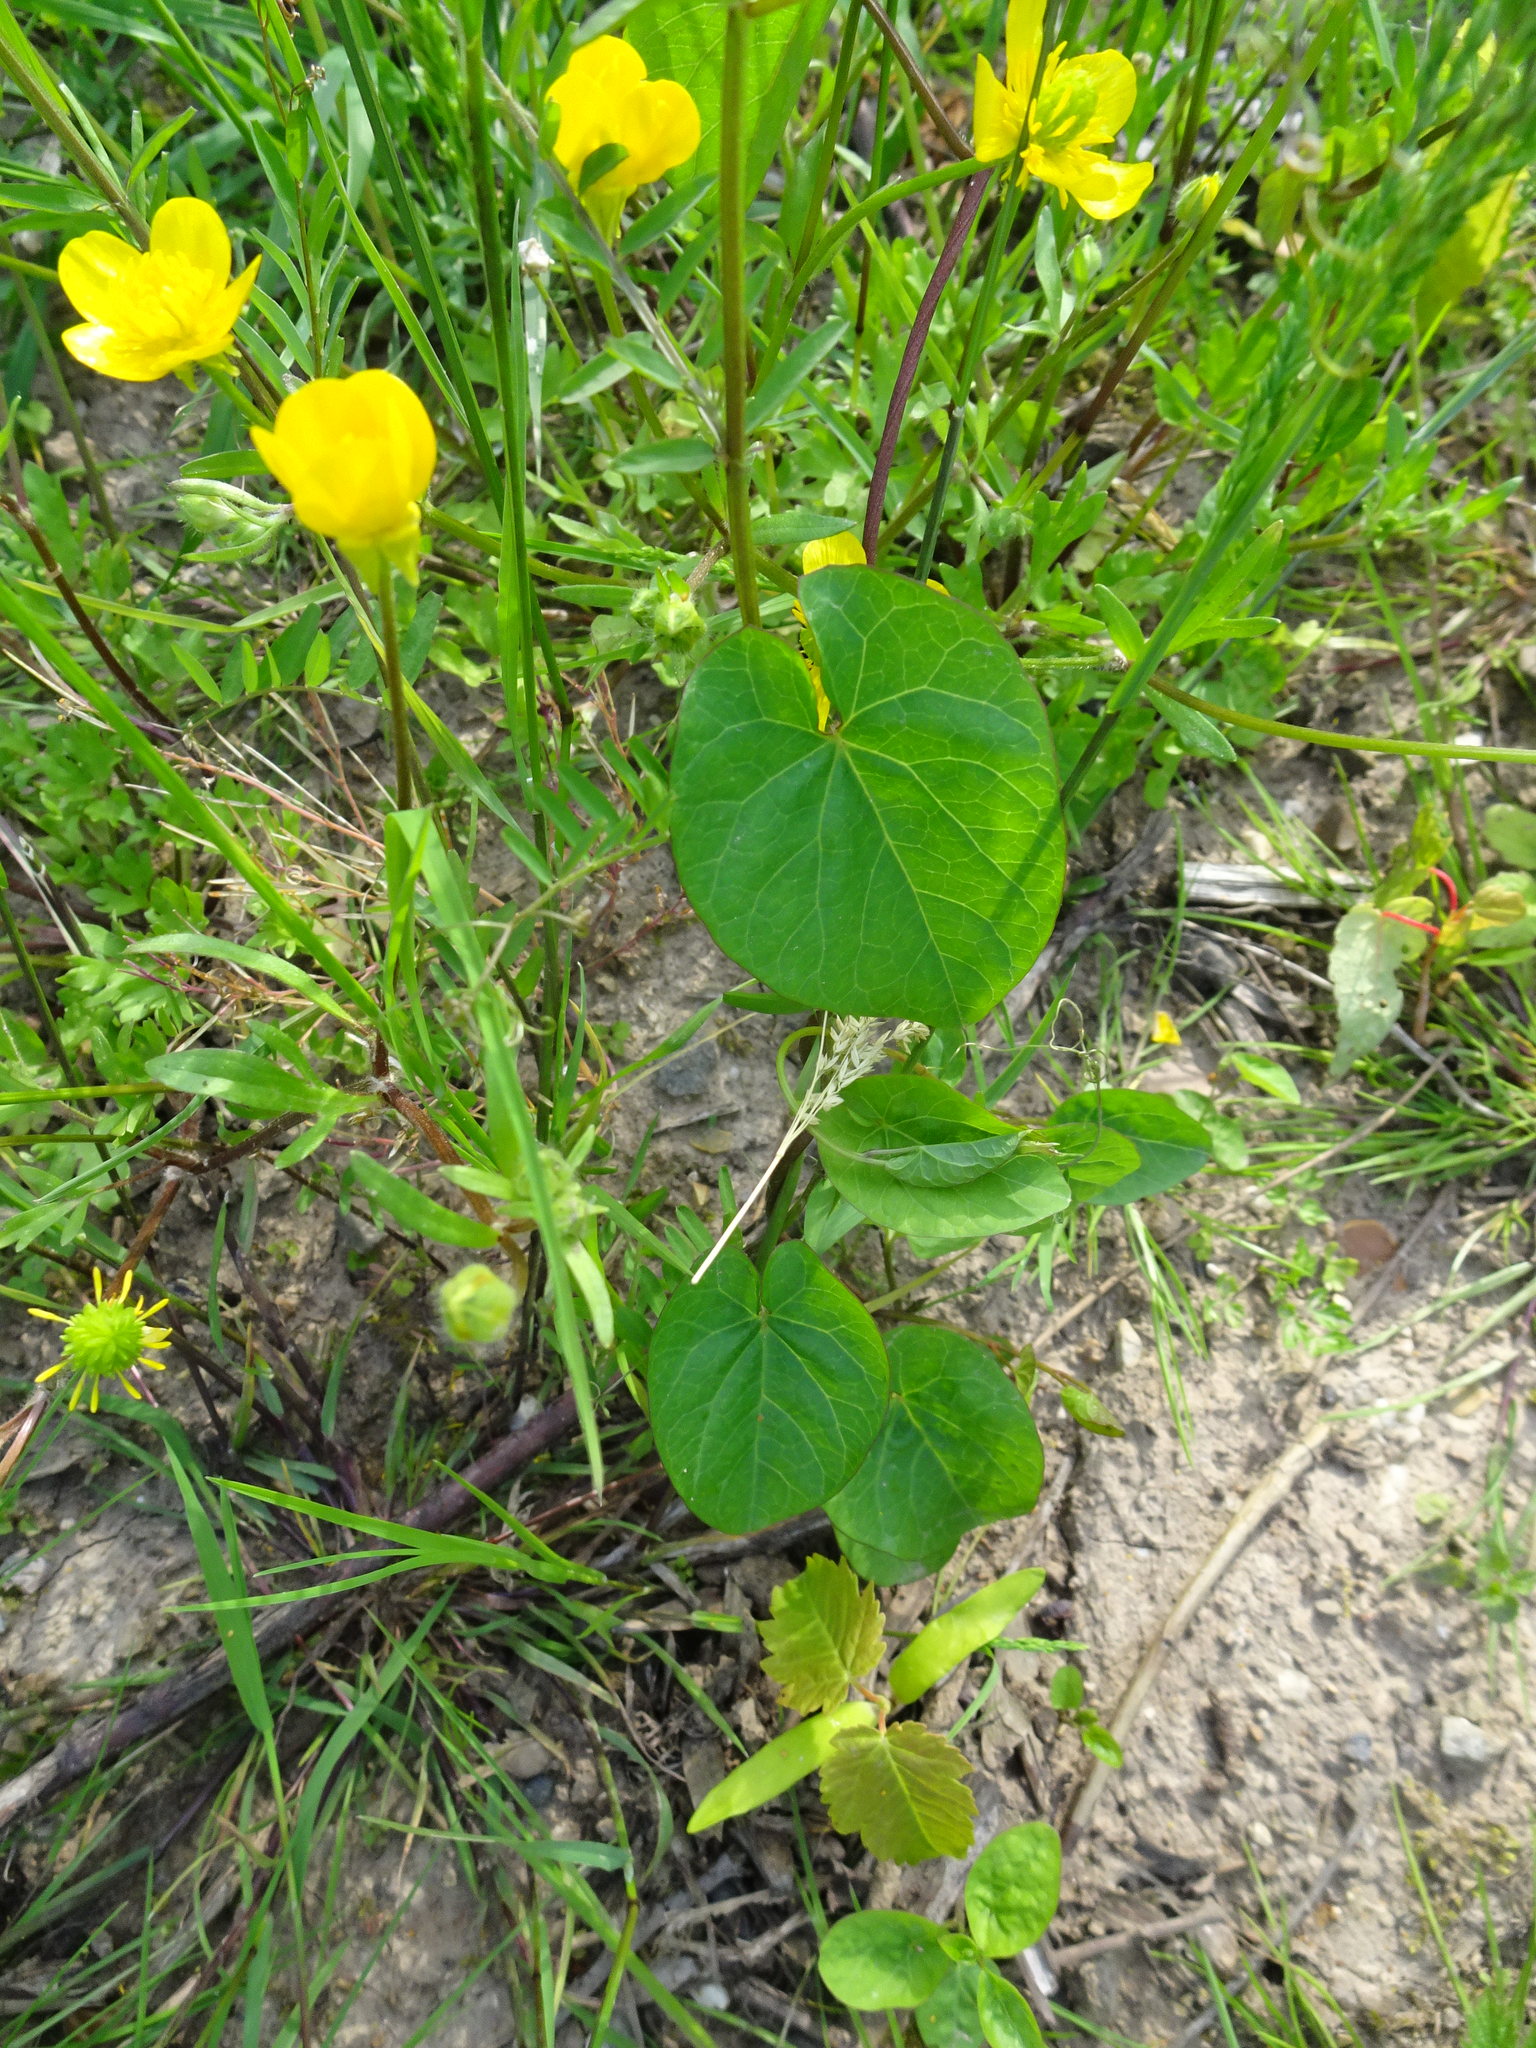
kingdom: Plantae
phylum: Tracheophyta
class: Magnoliopsida
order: Solanales
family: Convolvulaceae
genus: Calystegia
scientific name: Calystegia sepium
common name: Hedge bindweed
